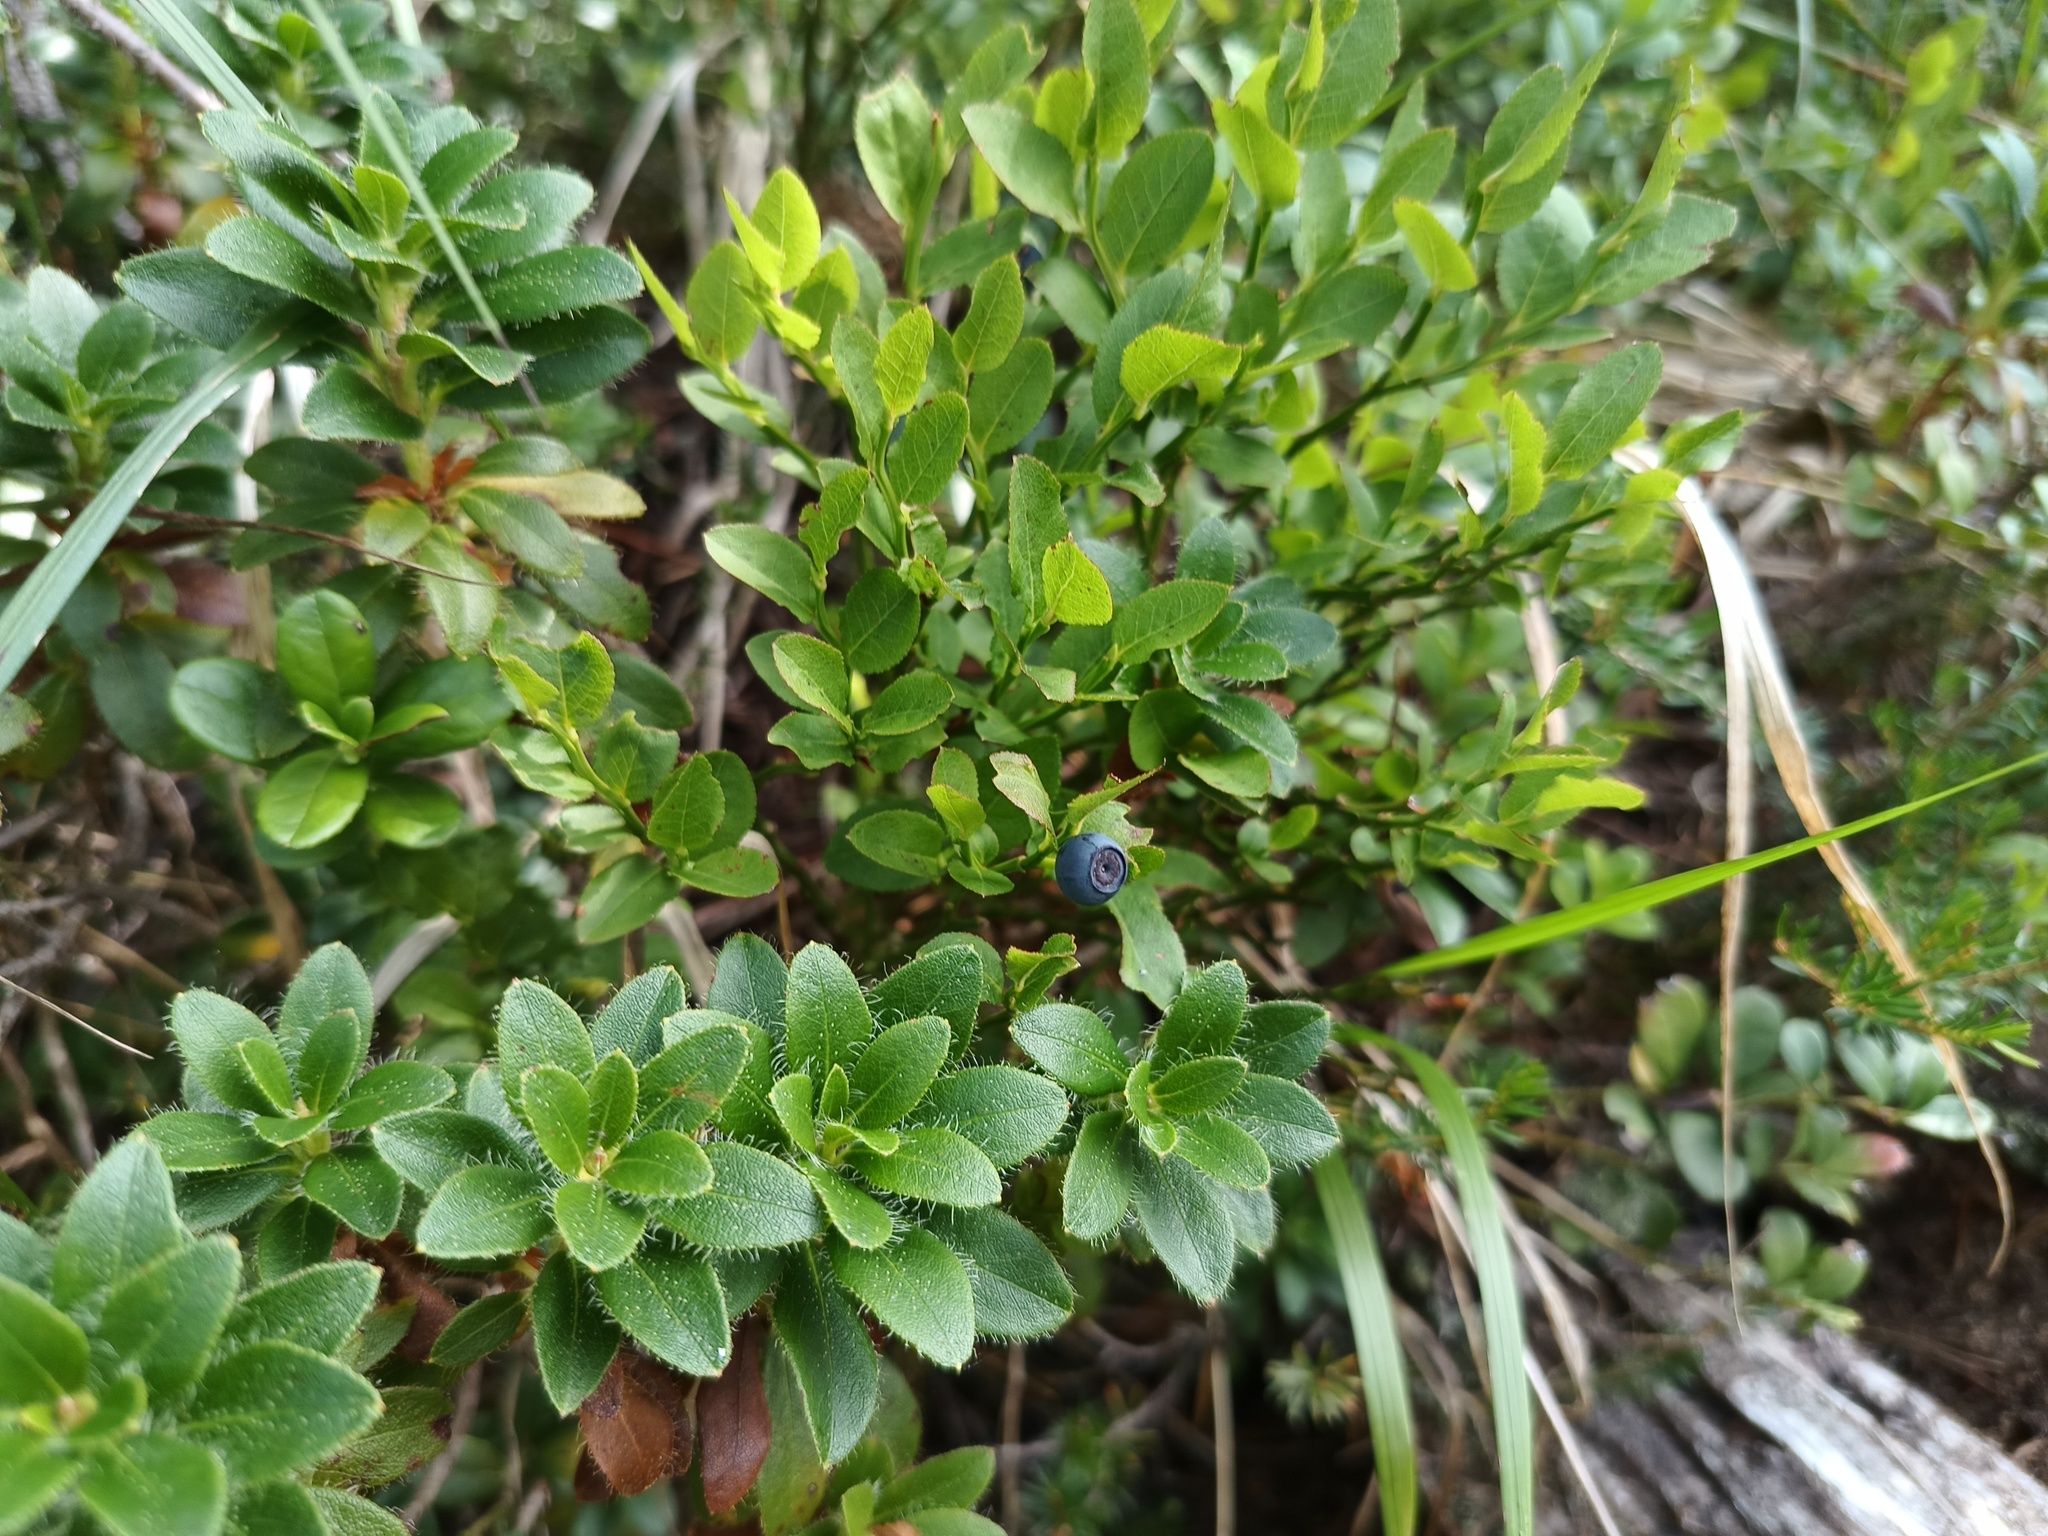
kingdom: Plantae
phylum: Tracheophyta
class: Magnoliopsida
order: Ericales
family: Ericaceae
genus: Vaccinium
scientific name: Vaccinium myrtillus
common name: Bilberry
